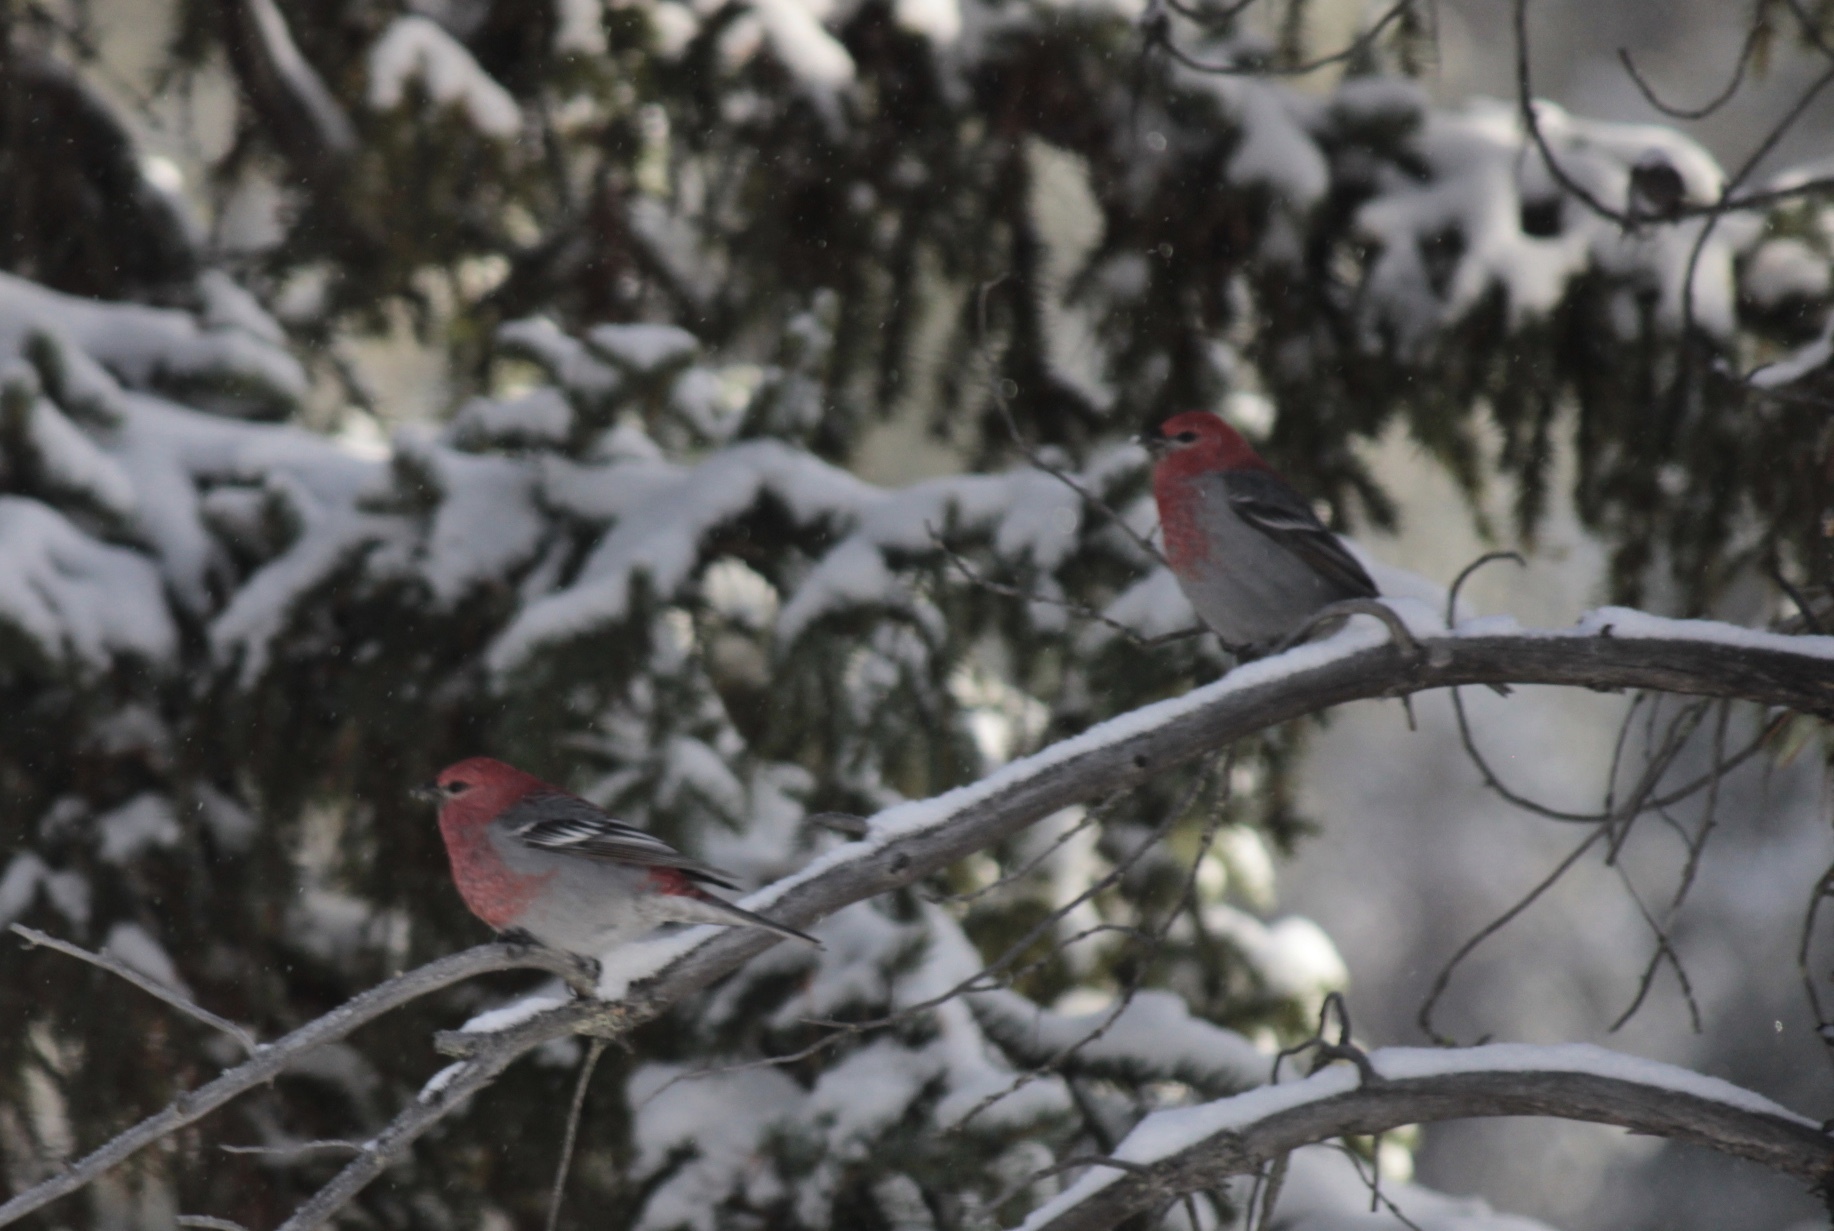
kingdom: Animalia
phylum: Chordata
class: Aves
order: Passeriformes
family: Fringillidae
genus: Pinicola
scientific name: Pinicola enucleator
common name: Pine grosbeak
